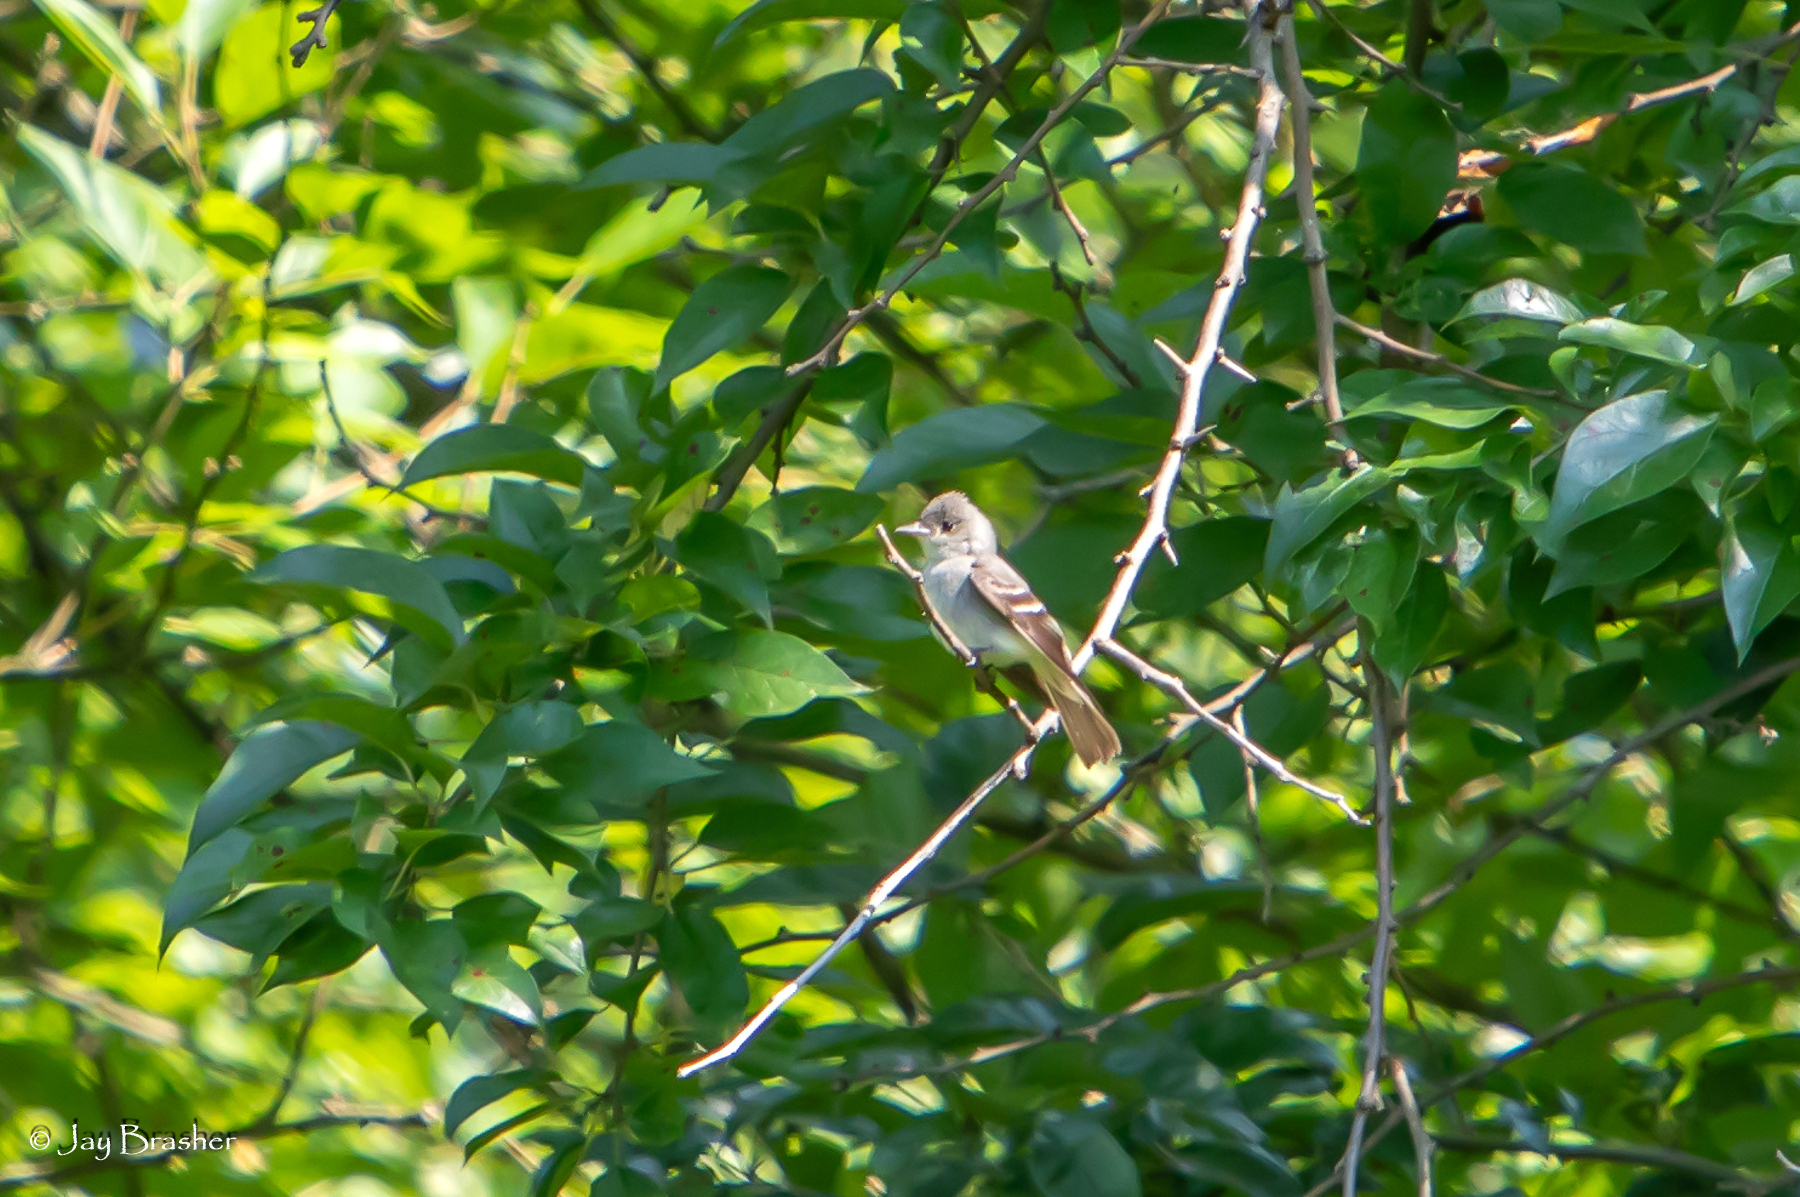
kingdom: Animalia
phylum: Chordata
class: Aves
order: Passeriformes
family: Tyrannidae
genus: Contopus
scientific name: Contopus virens
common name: Eastern wood-pewee
